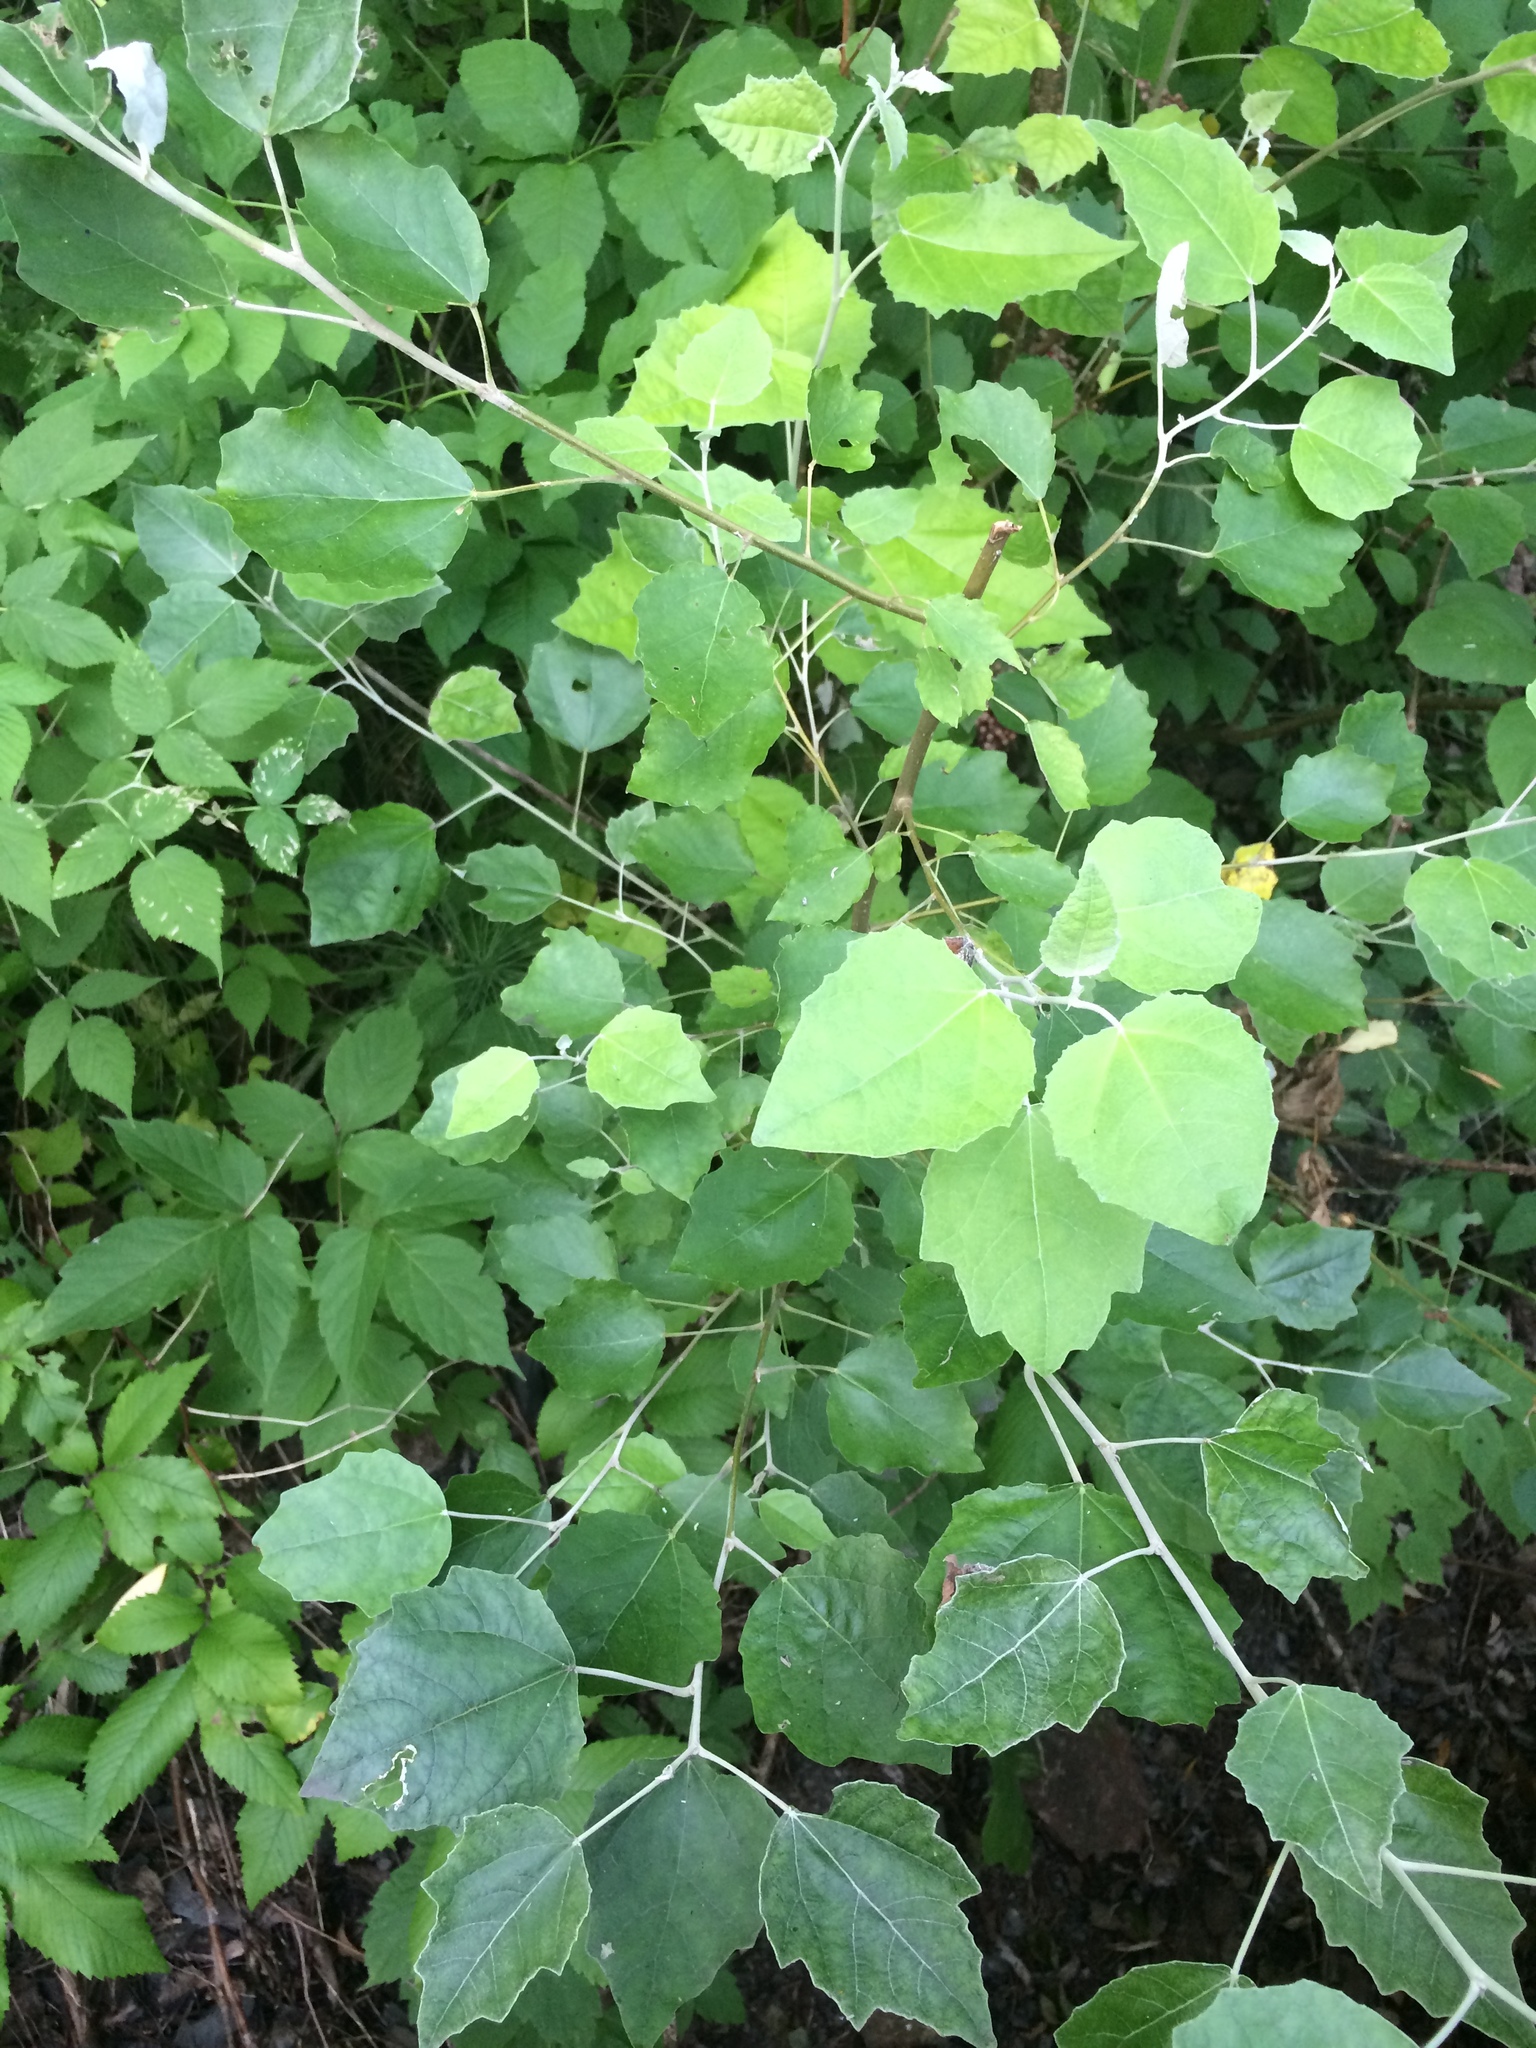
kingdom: Plantae
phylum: Tracheophyta
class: Magnoliopsida
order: Malpighiales
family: Salicaceae
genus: Populus
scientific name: Populus alba
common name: White poplar
